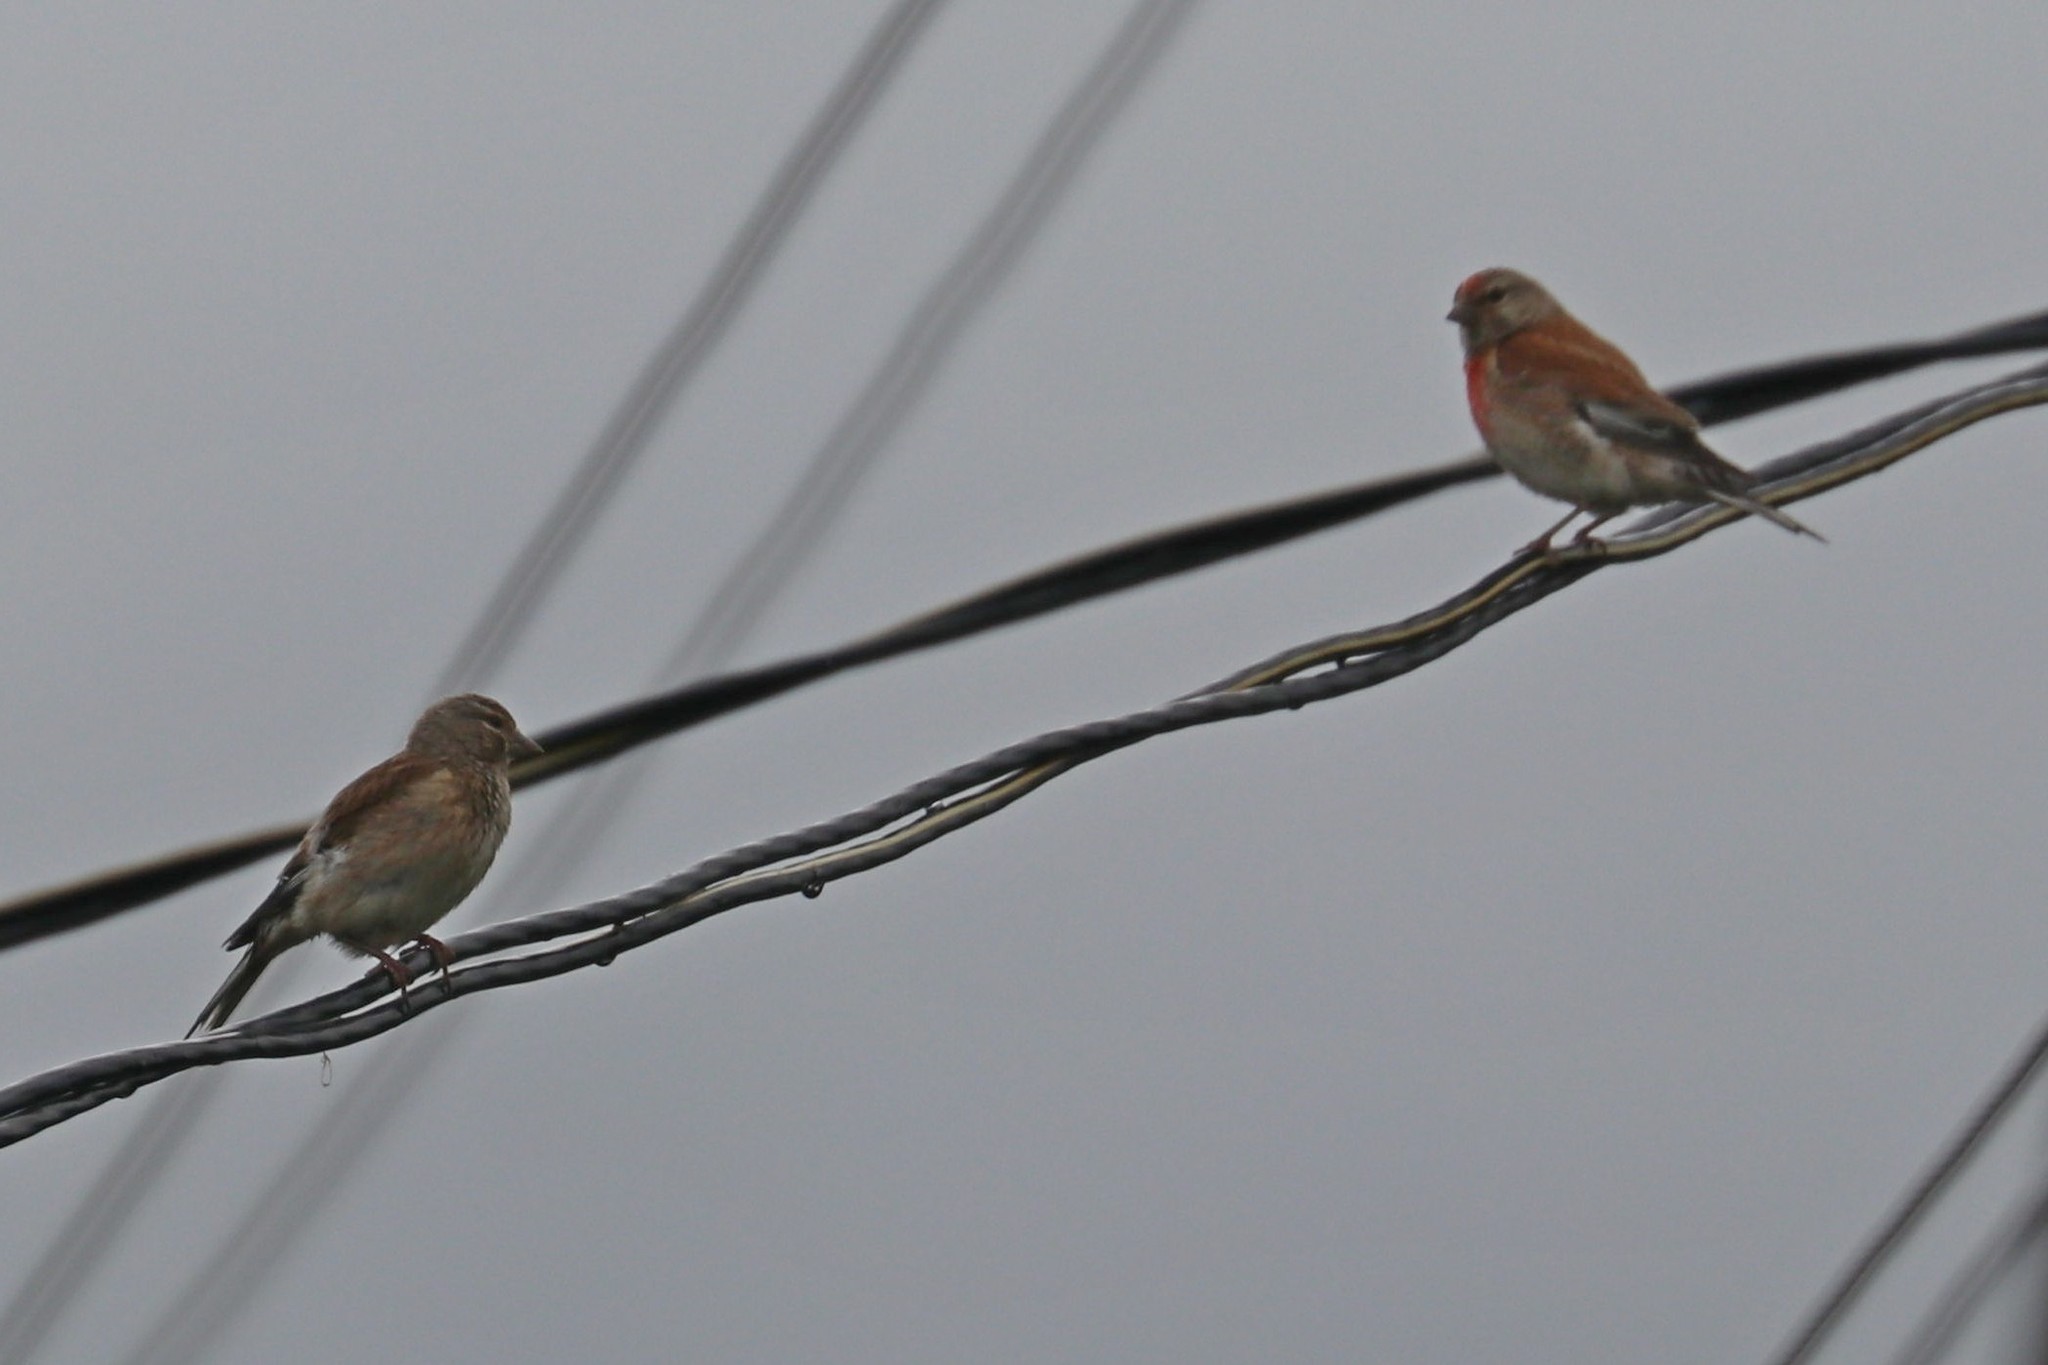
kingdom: Animalia
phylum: Chordata
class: Aves
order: Passeriformes
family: Fringillidae
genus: Linaria
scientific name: Linaria cannabina
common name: Common linnet
